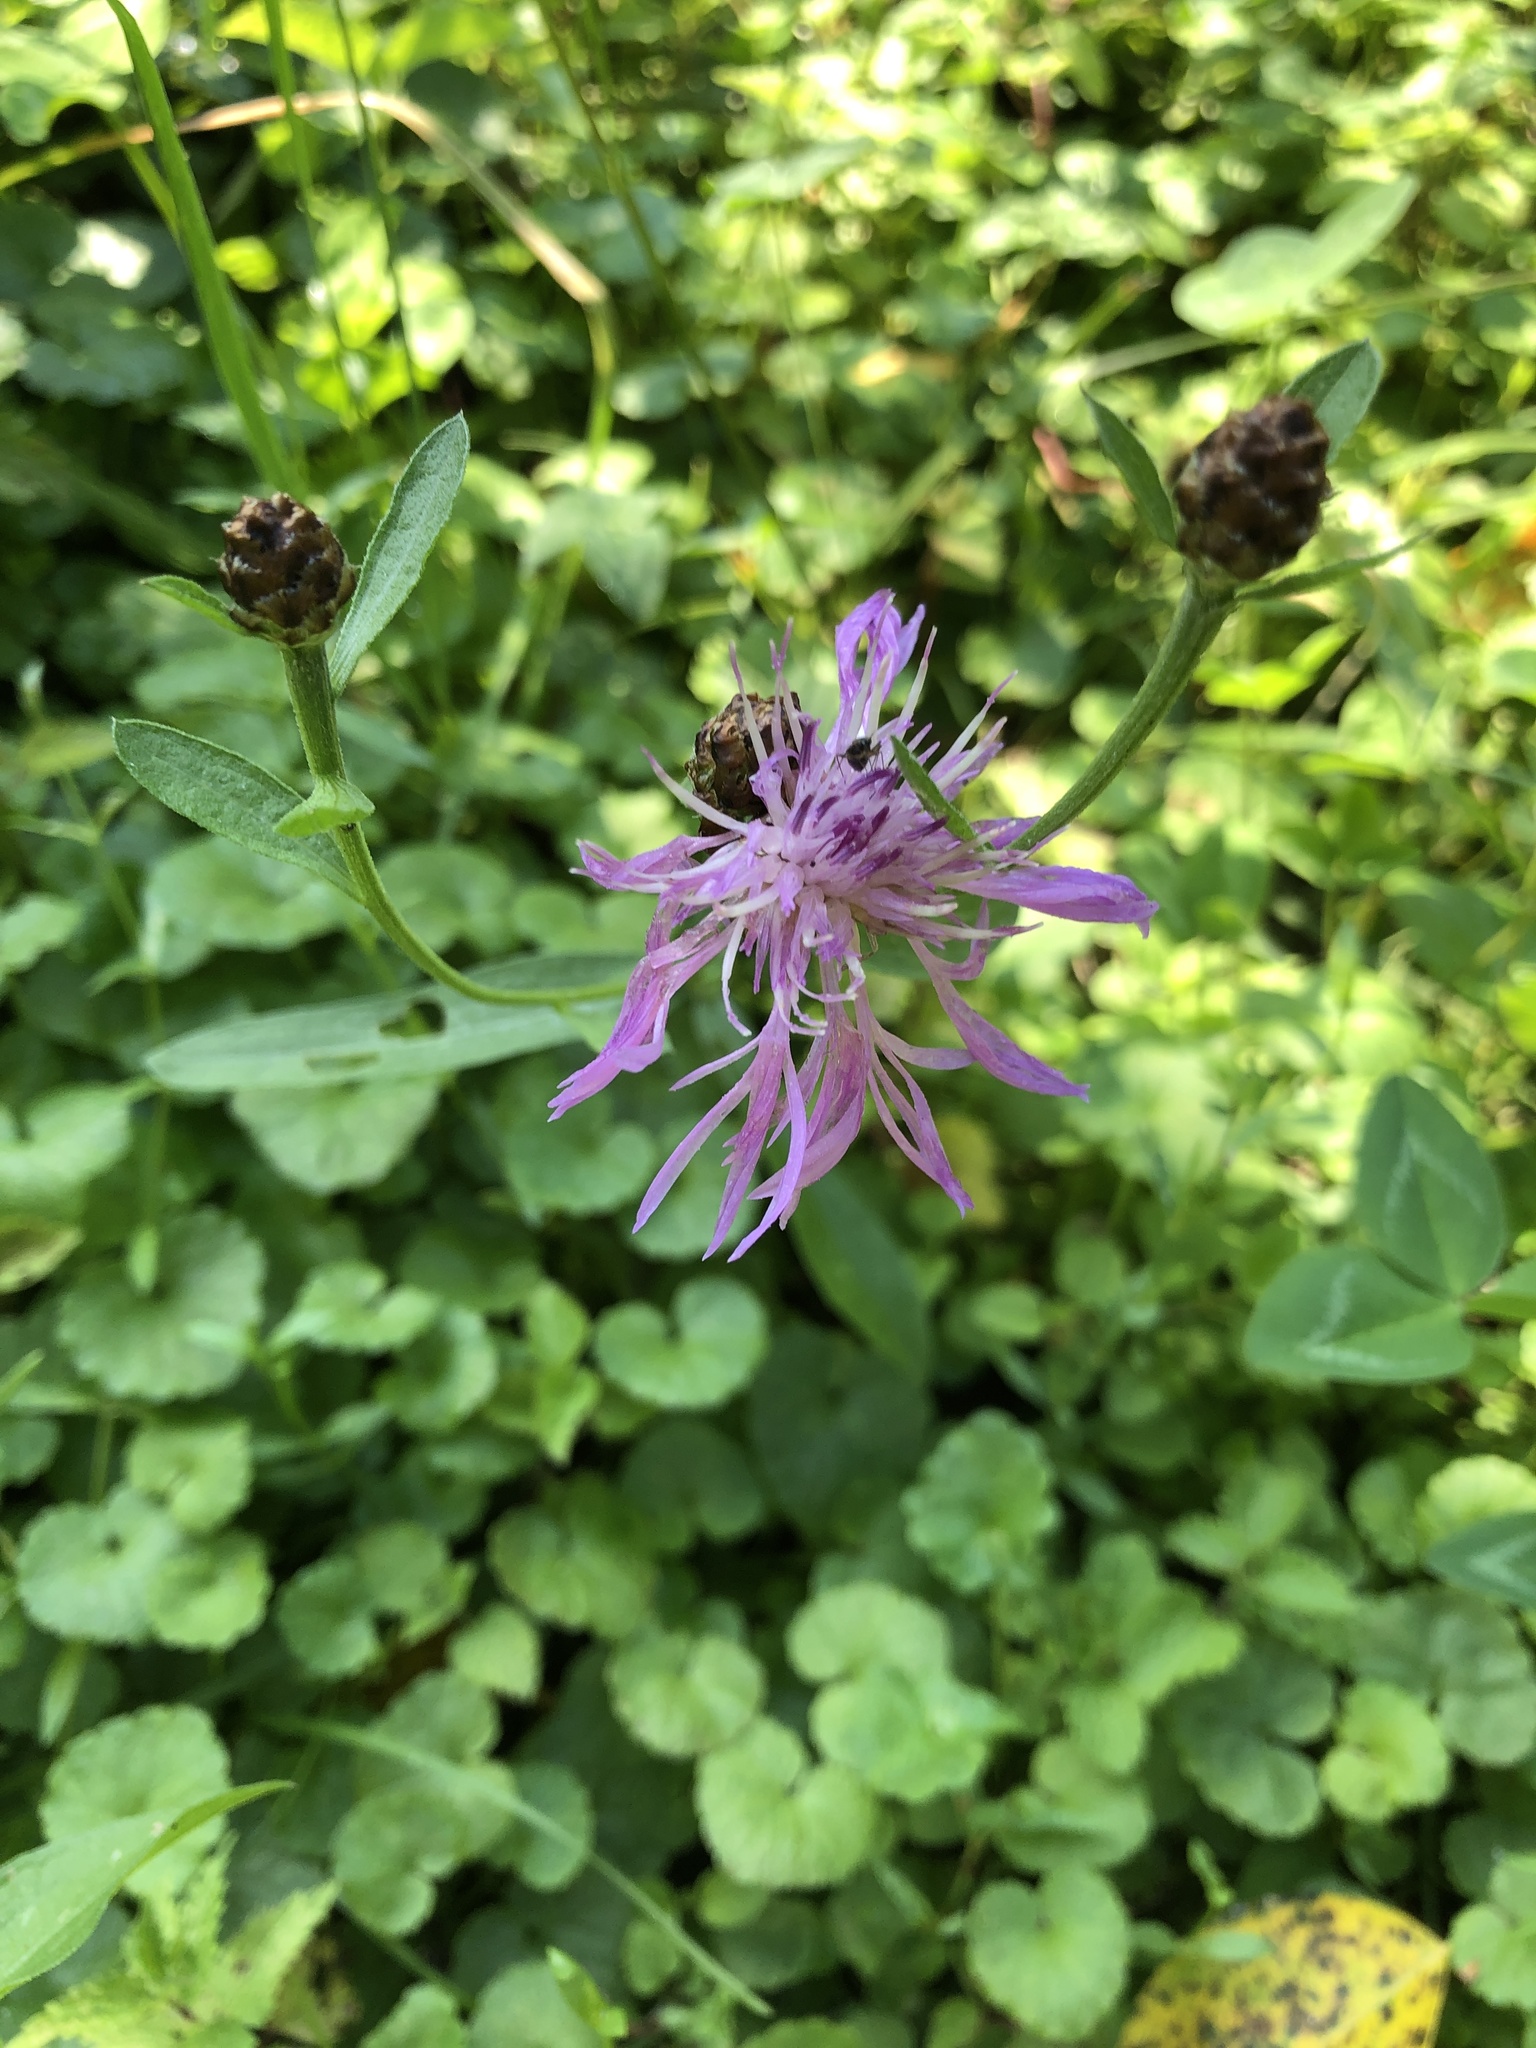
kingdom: Plantae
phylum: Tracheophyta
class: Magnoliopsida
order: Asterales
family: Asteraceae
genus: Centaurea
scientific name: Centaurea jacea
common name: Brown knapweed
